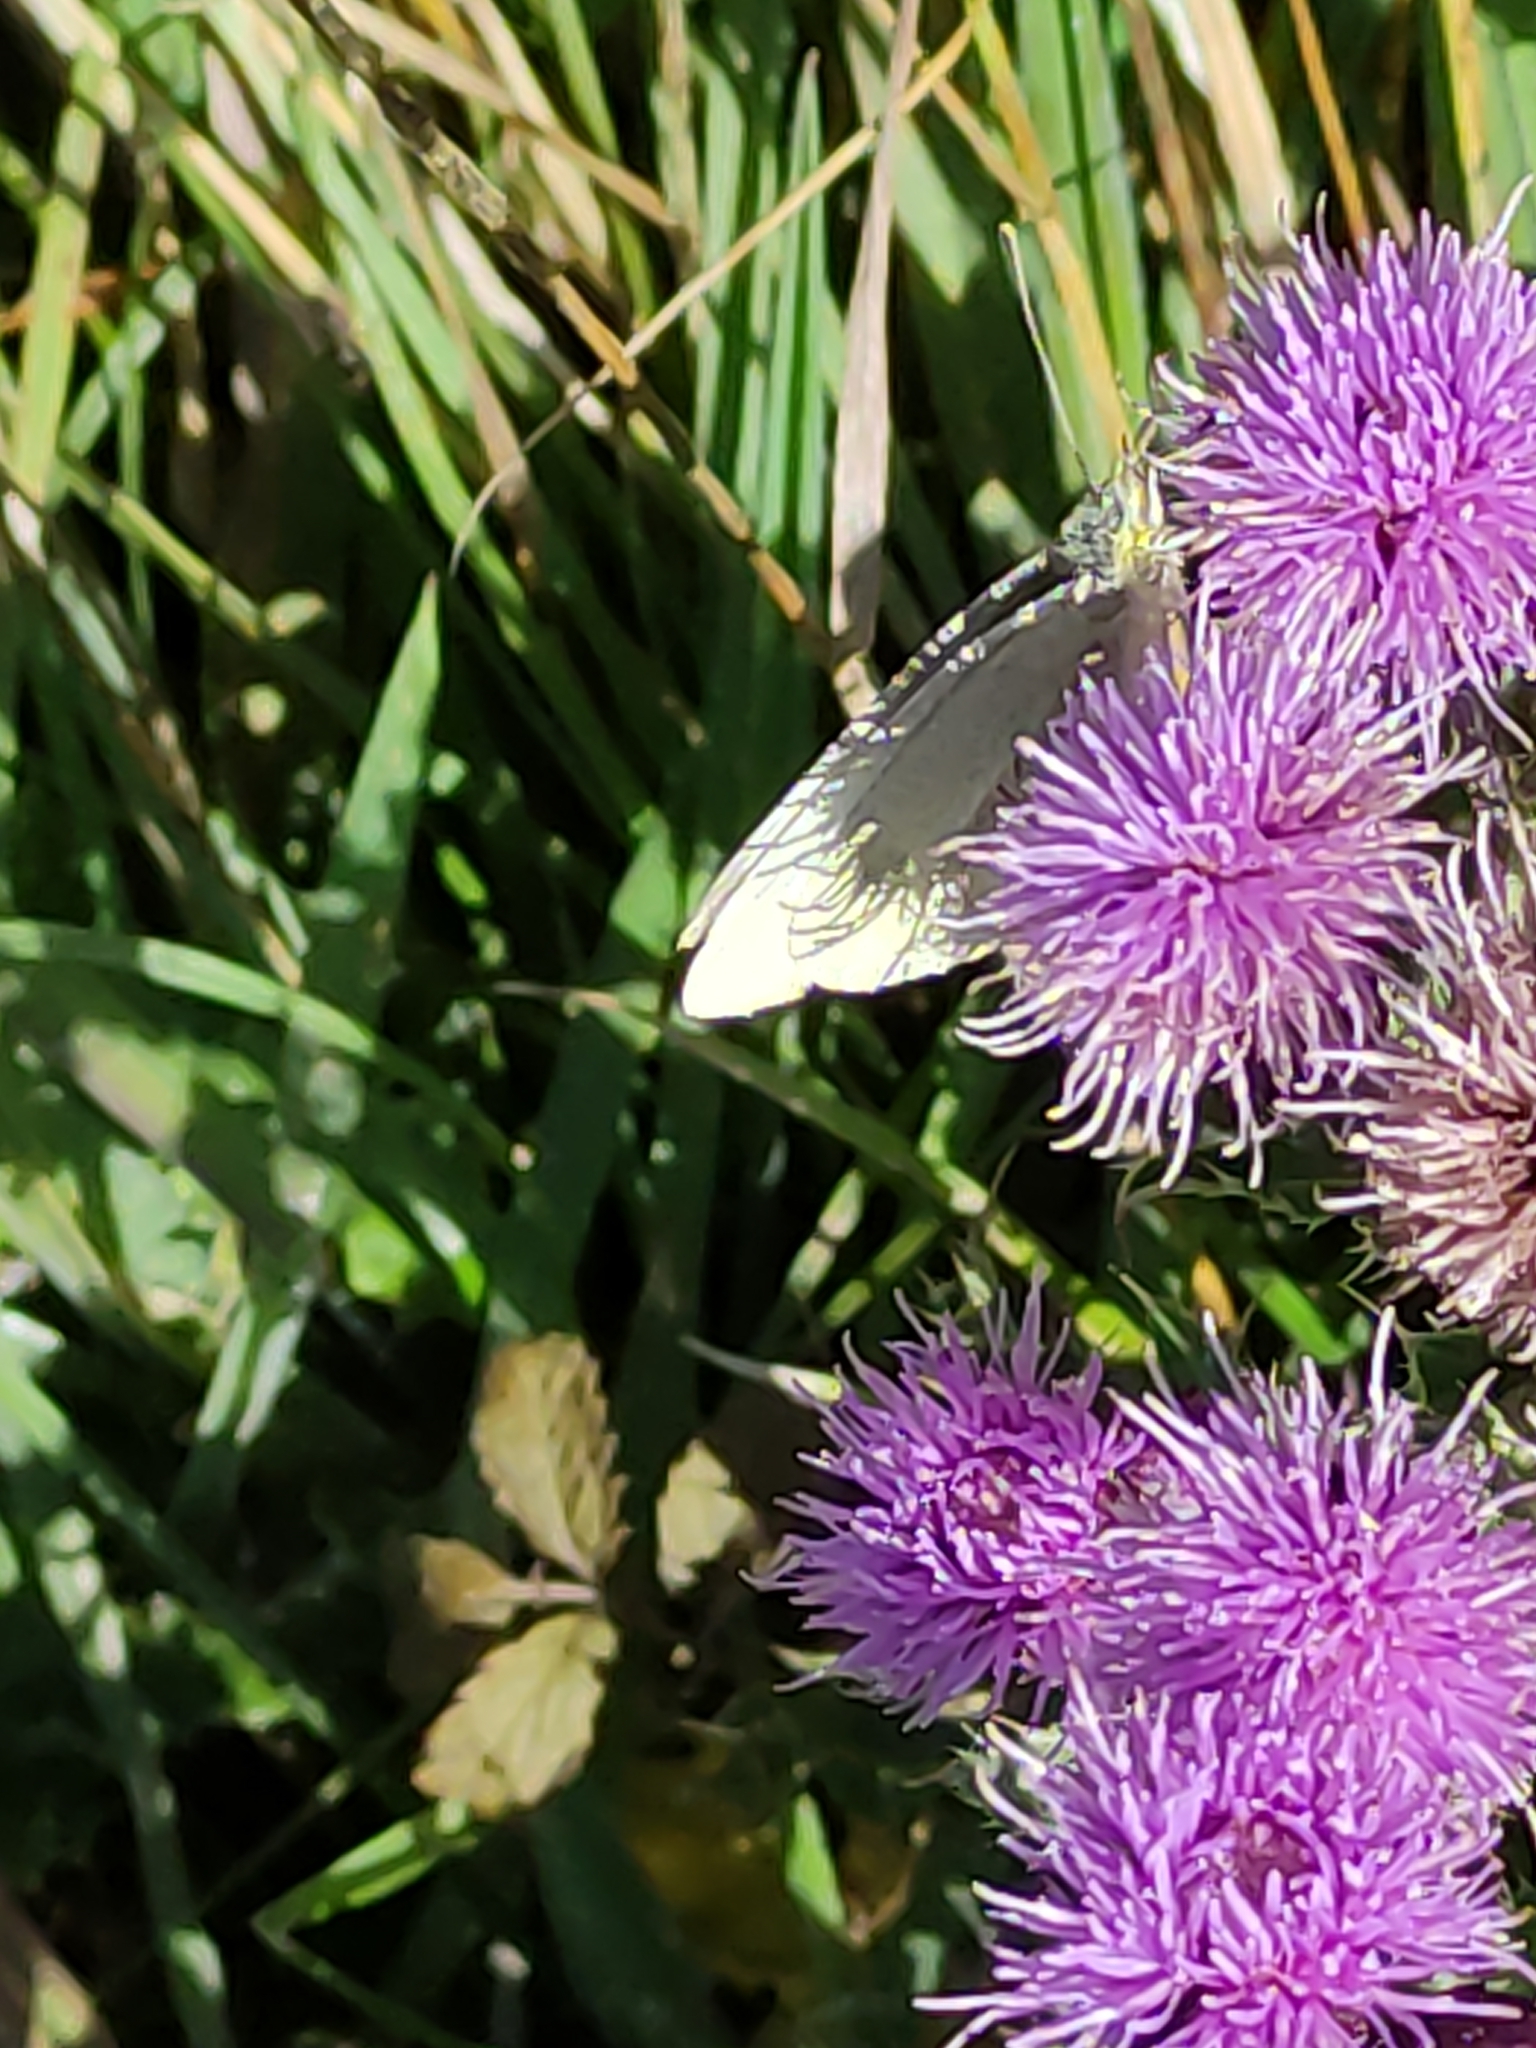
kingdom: Animalia
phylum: Arthropoda
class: Insecta
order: Lepidoptera
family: Pieridae
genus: Pieris
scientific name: Pieris rapae
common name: Small white
